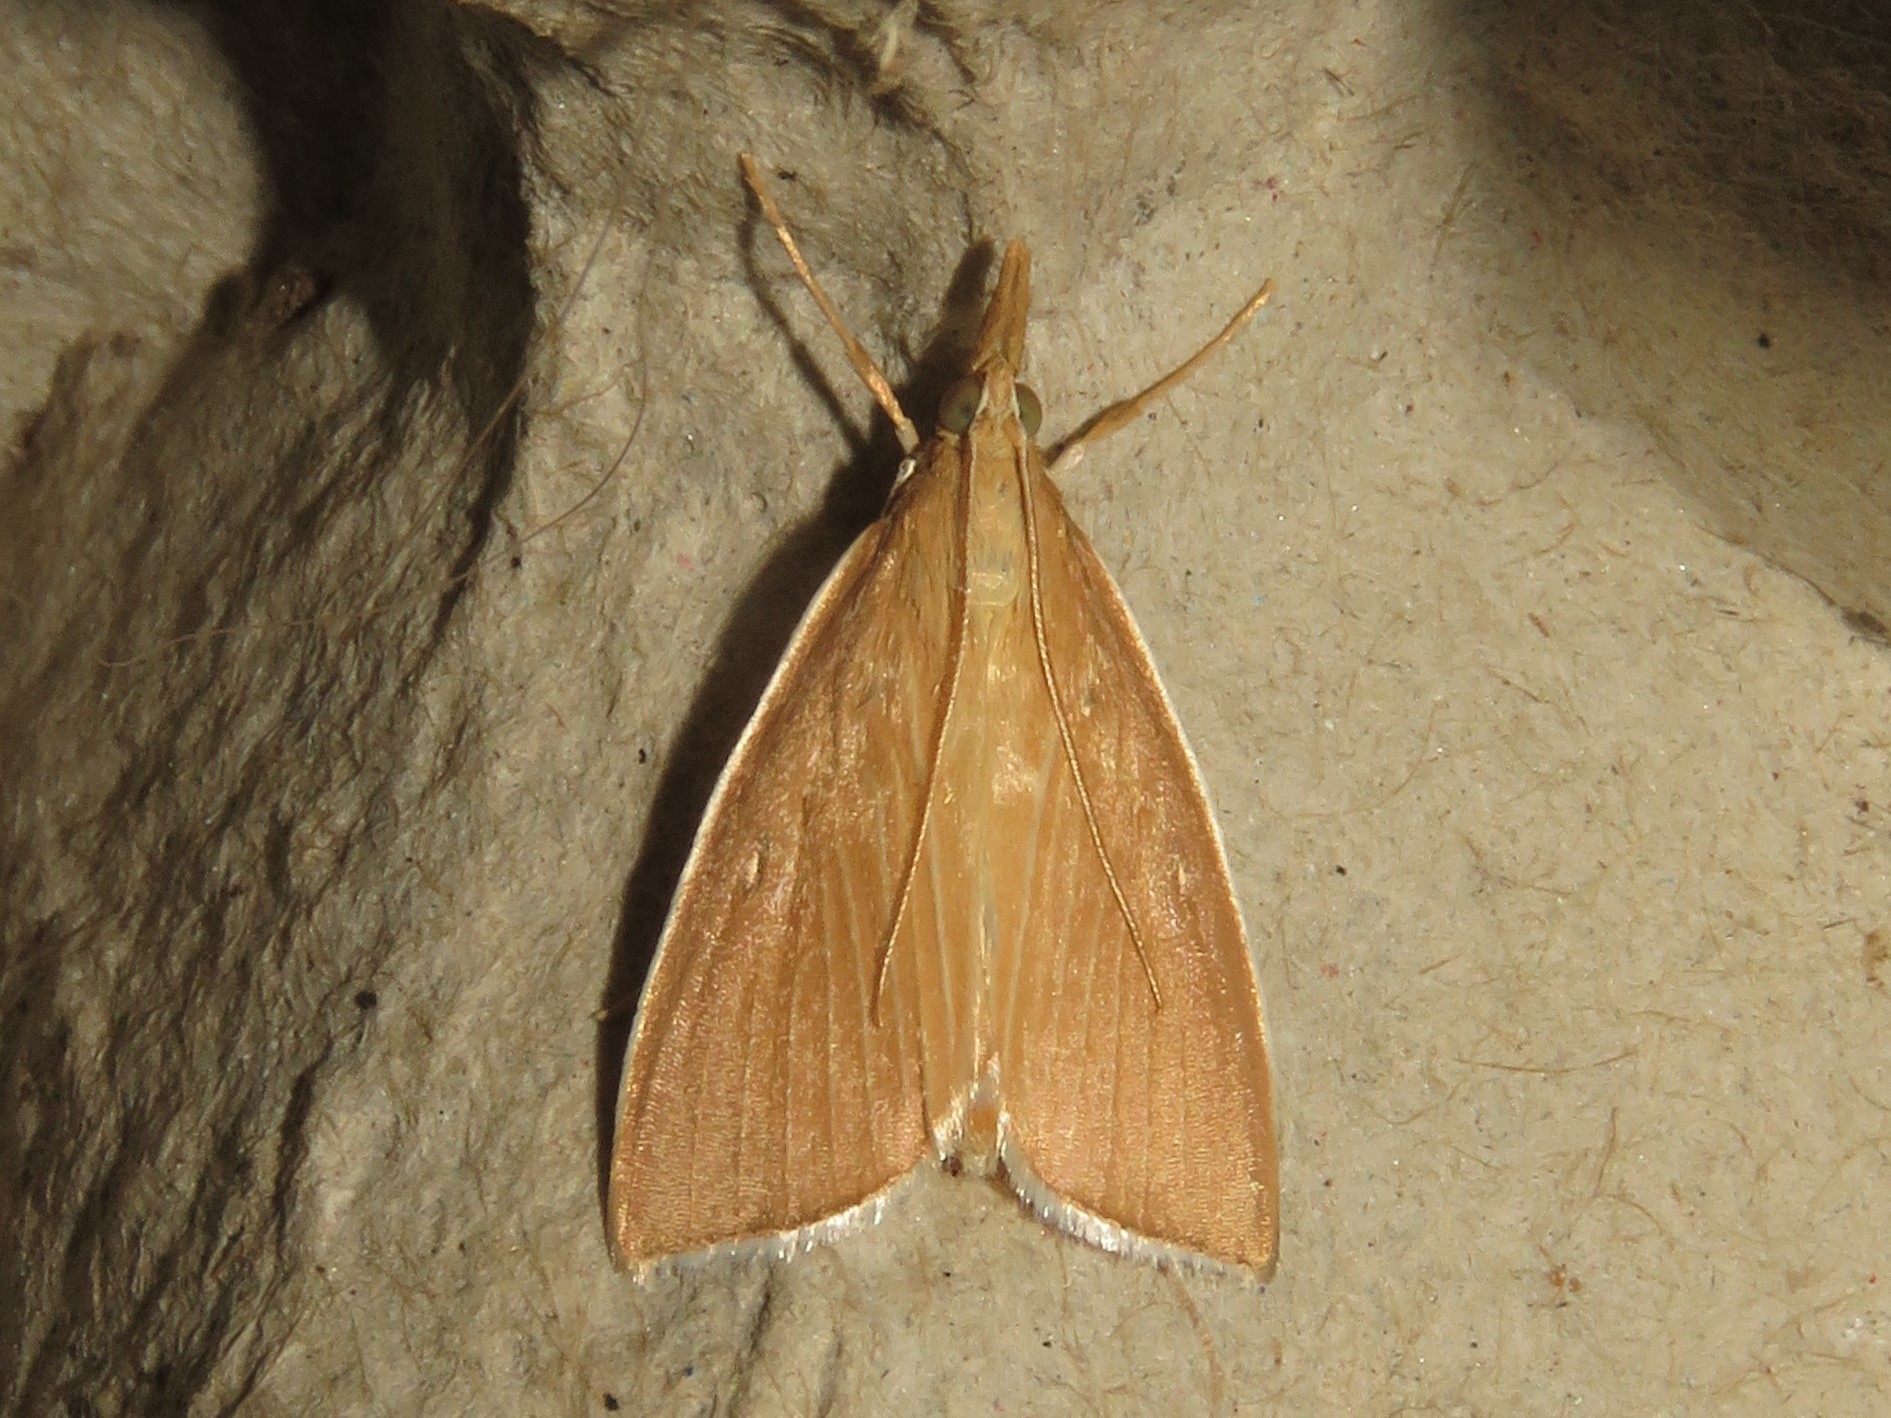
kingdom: Animalia
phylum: Arthropoda
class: Insecta
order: Lepidoptera
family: Crambidae
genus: Calamochrous
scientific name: Calamochrous Sclerocona acutella
